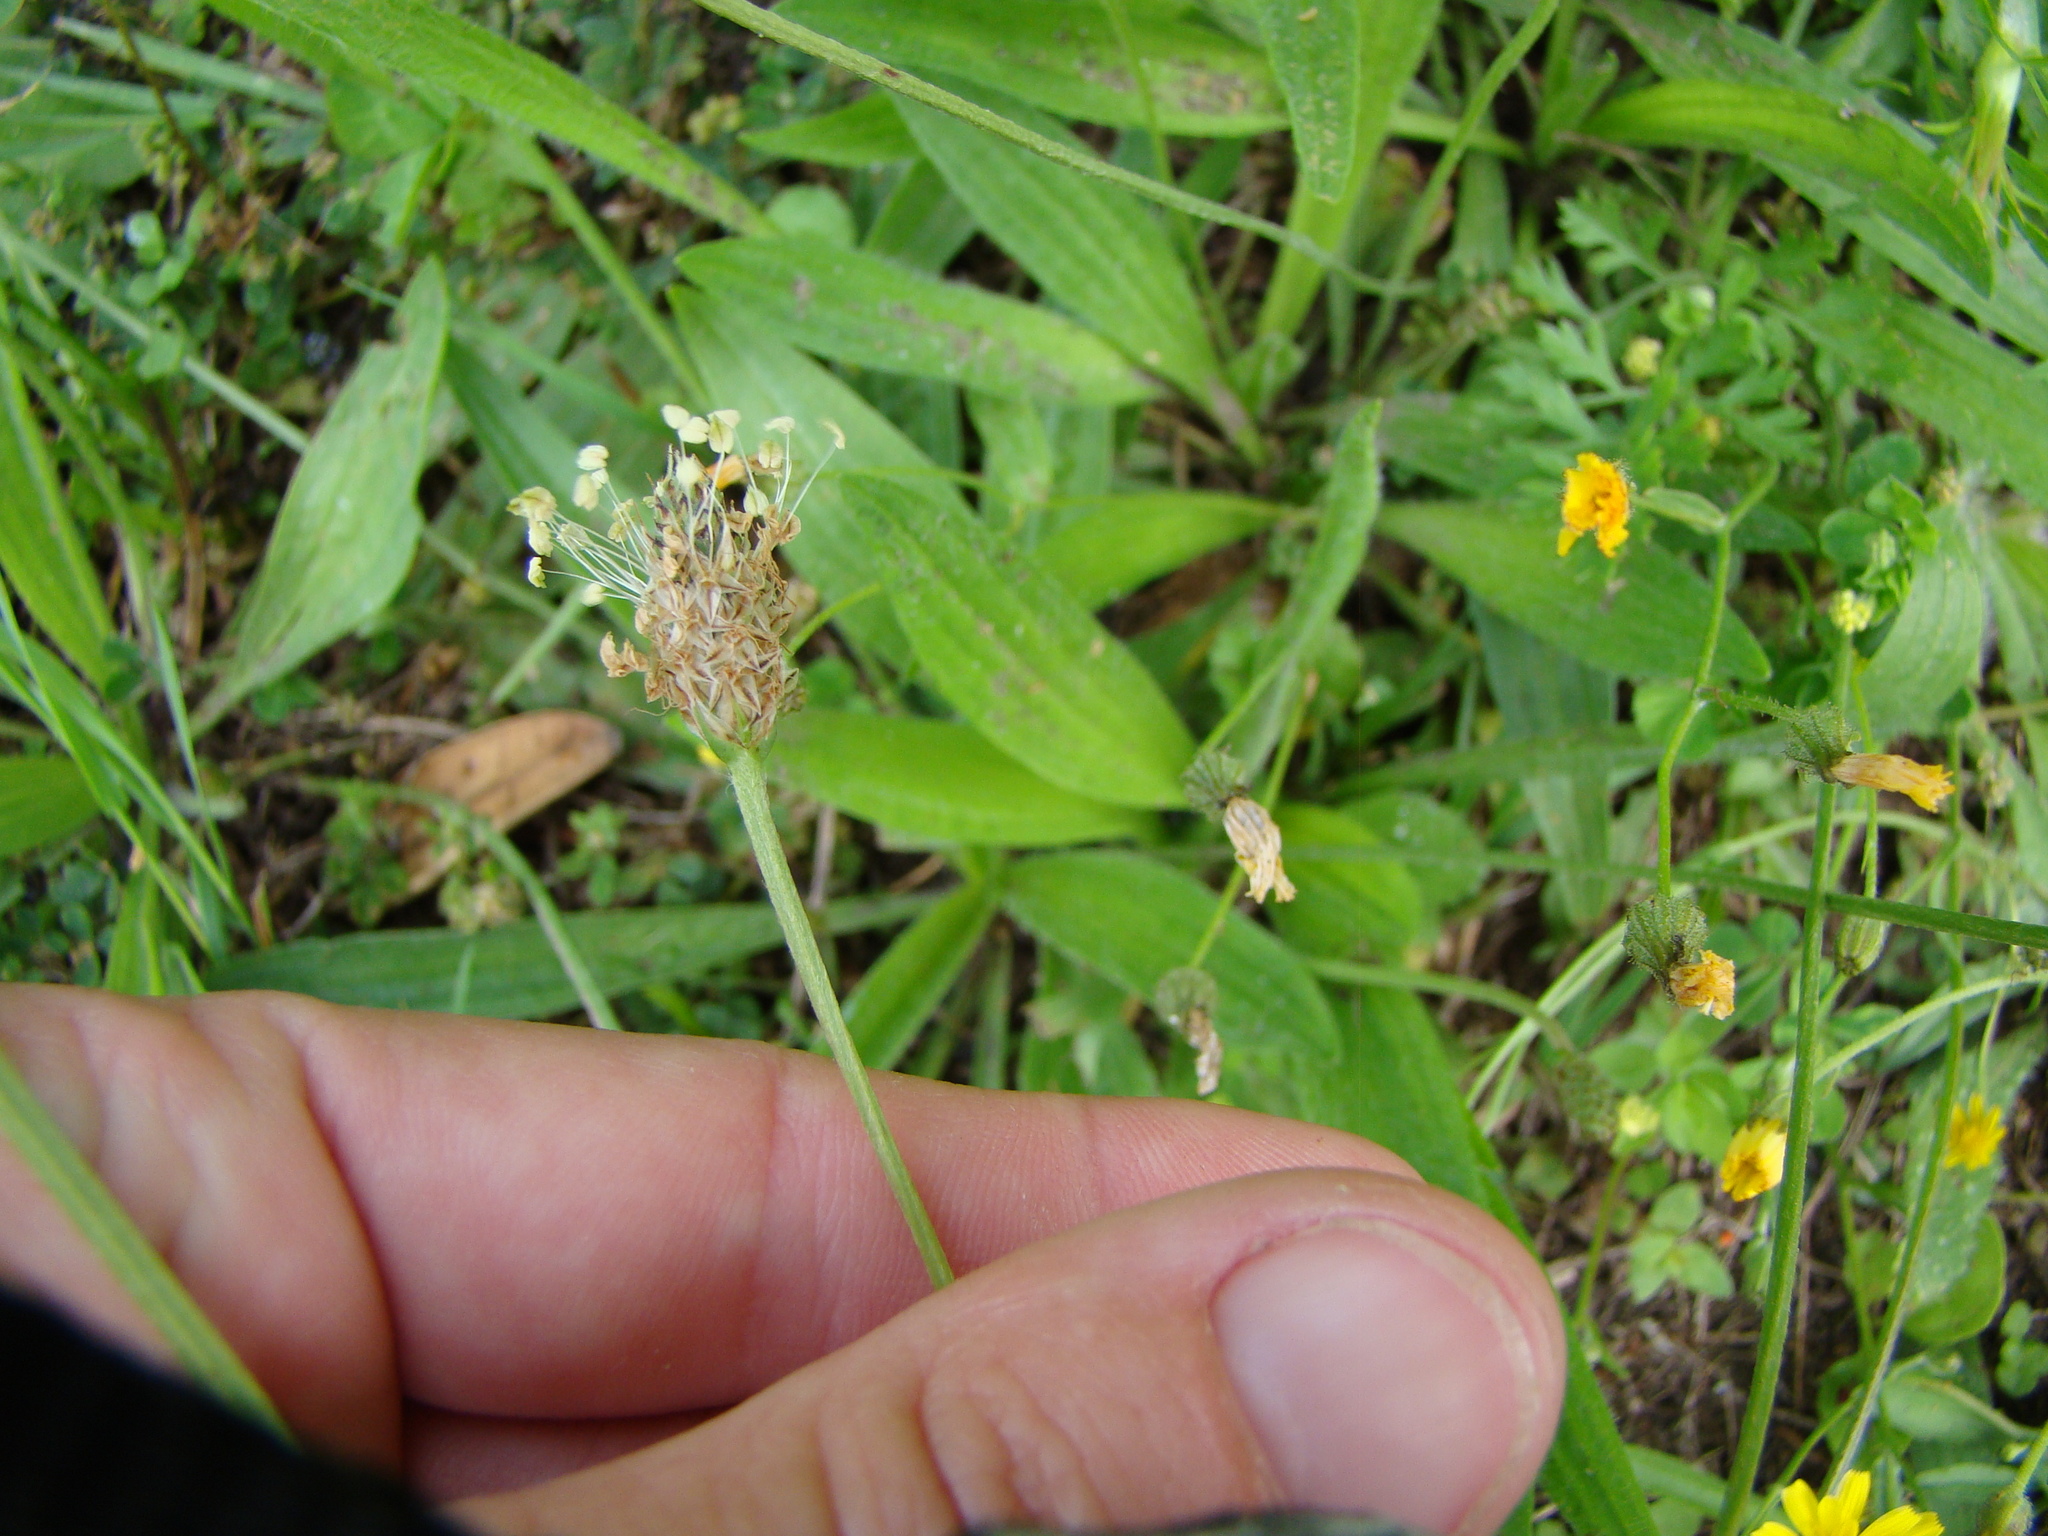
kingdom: Plantae
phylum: Tracheophyta
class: Magnoliopsida
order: Lamiales
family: Plantaginaceae
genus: Plantago
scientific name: Plantago lanceolata
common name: Ribwort plantain
